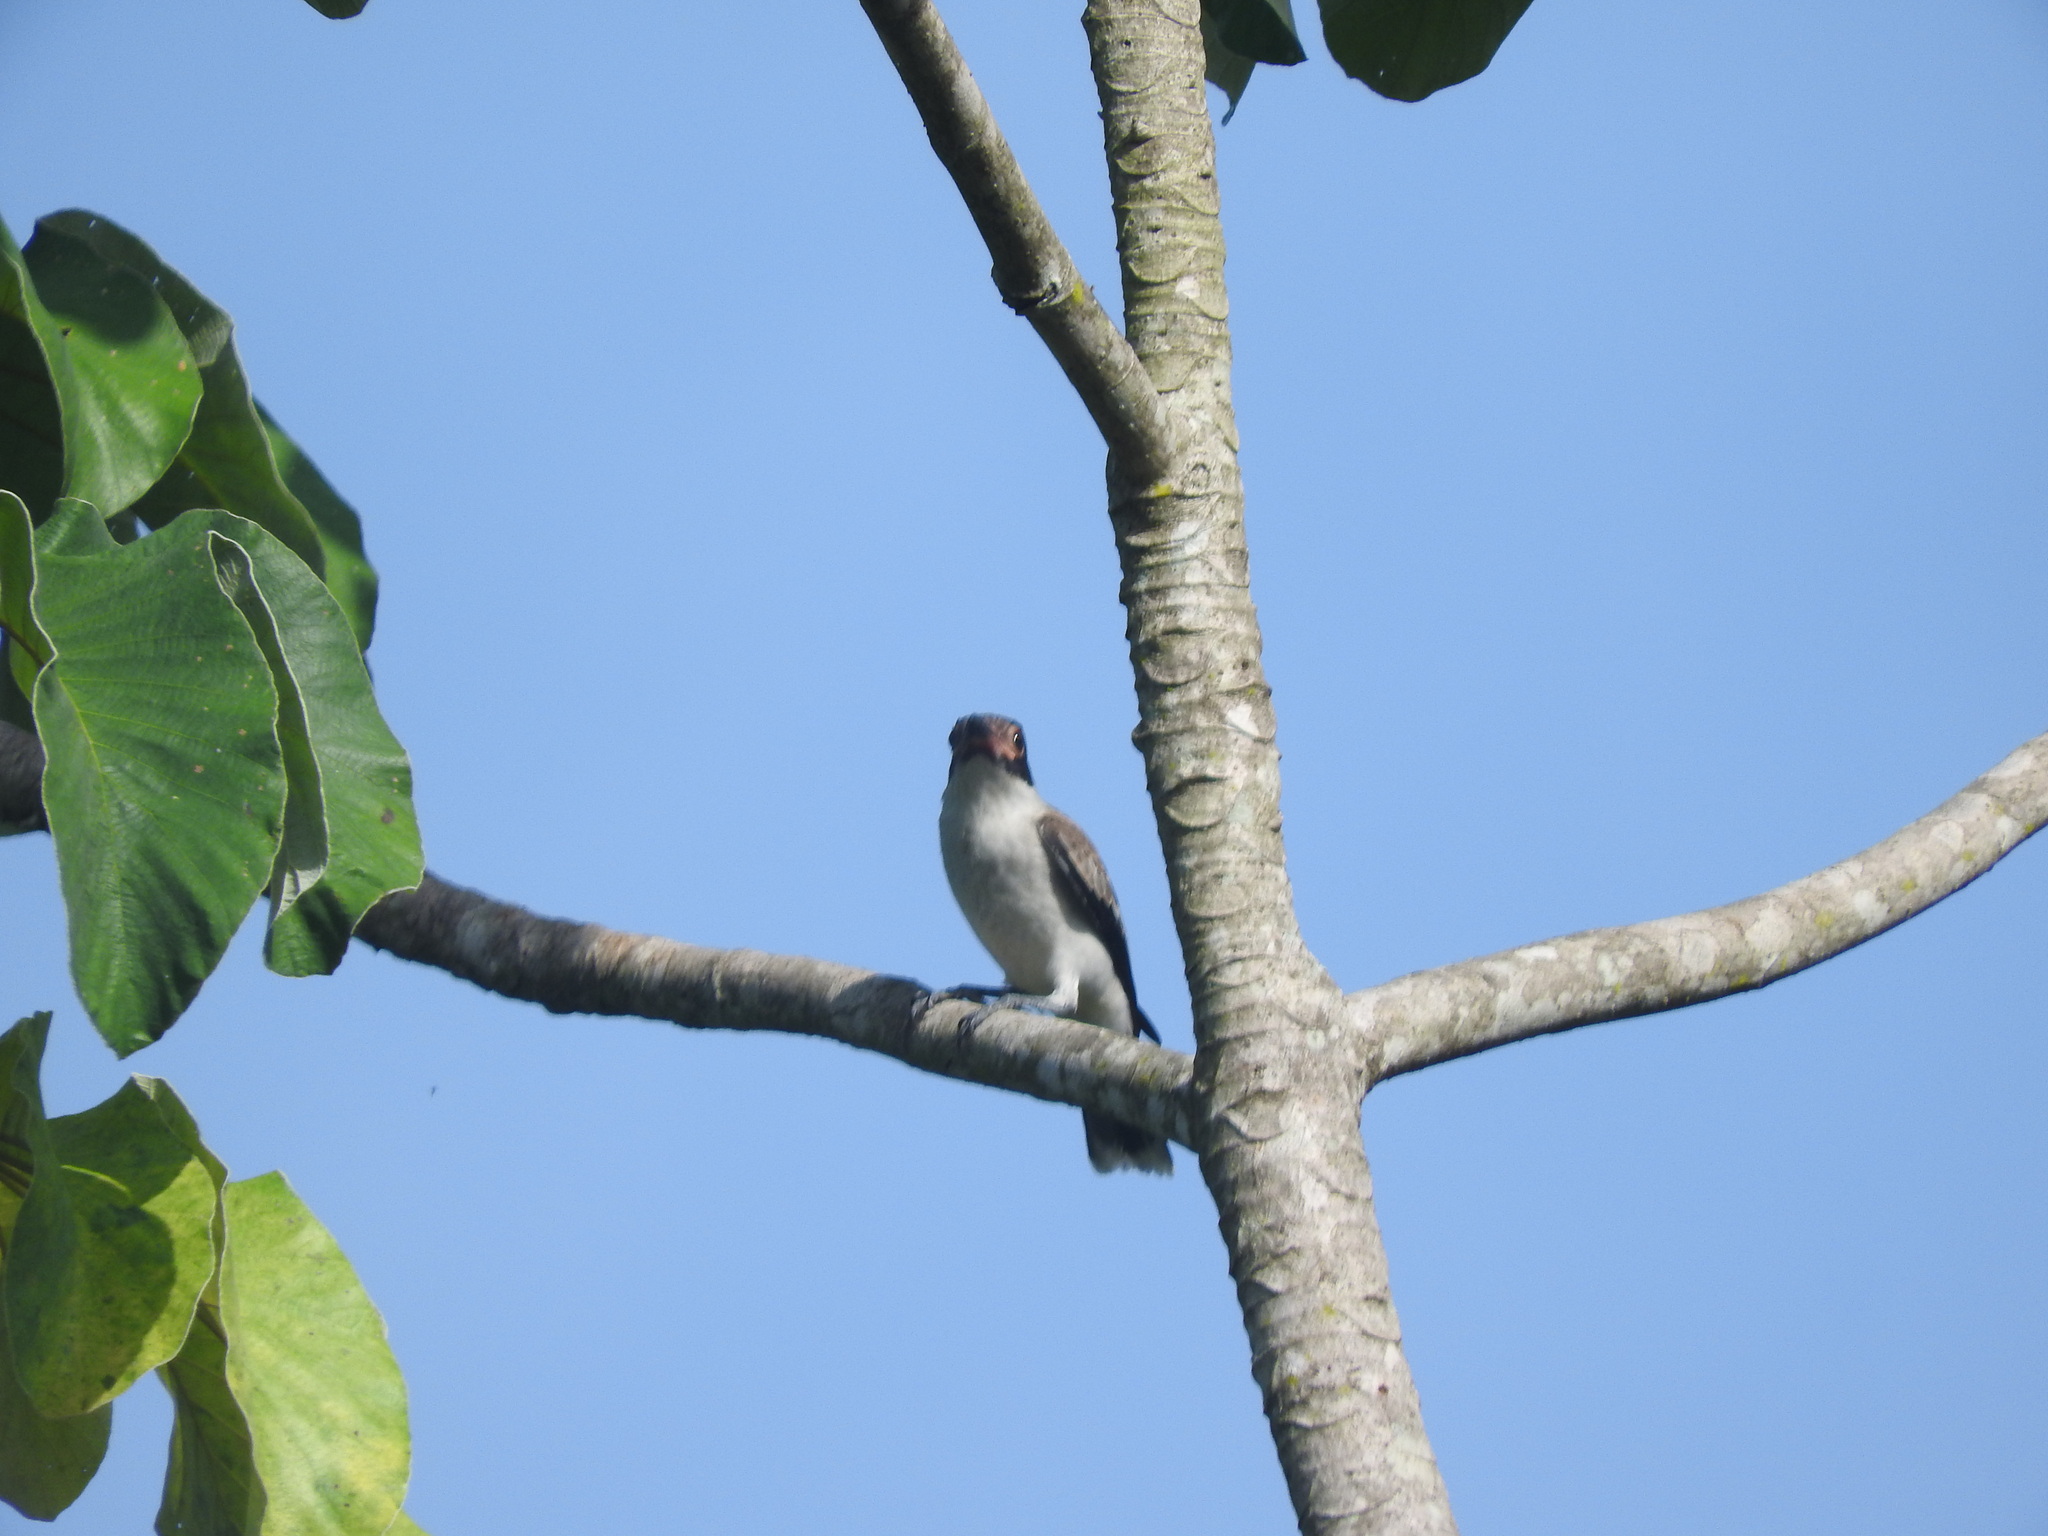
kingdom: Animalia
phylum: Chordata
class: Aves
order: Passeriformes
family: Cotingidae
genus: Tityra
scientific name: Tityra semifasciata
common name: Masked tityra
